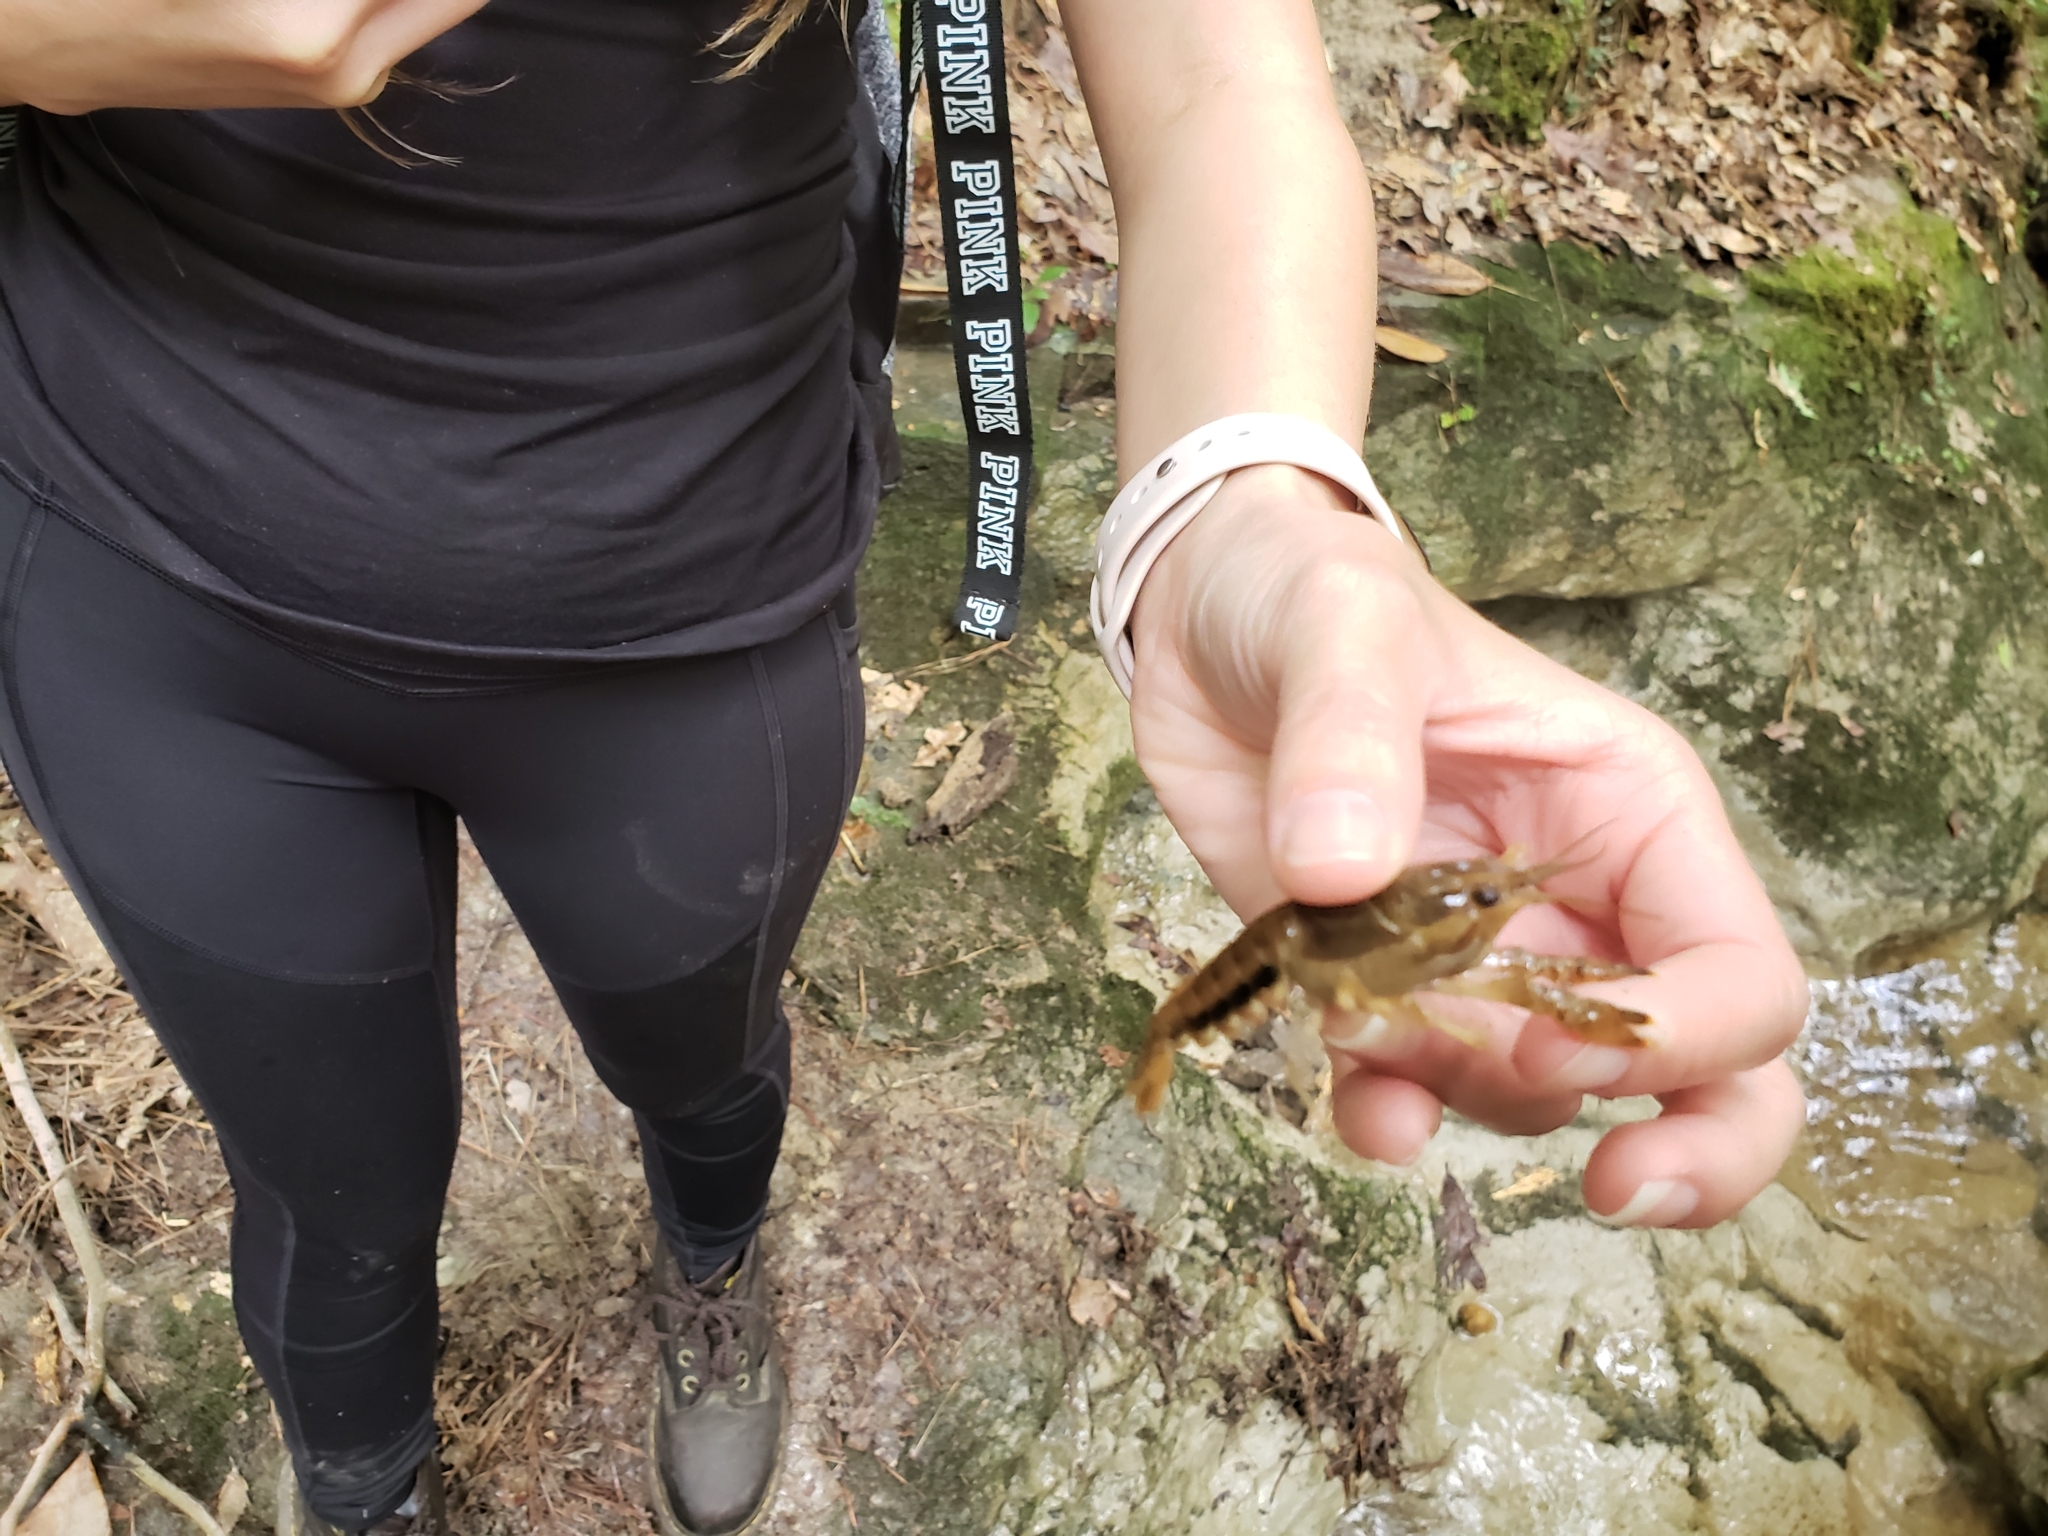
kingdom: Animalia
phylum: Arthropoda
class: Malacostraca
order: Decapoda
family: Cambaridae
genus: Procambarus
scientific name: Procambarus vioscai
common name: Percy's creek crayfish
